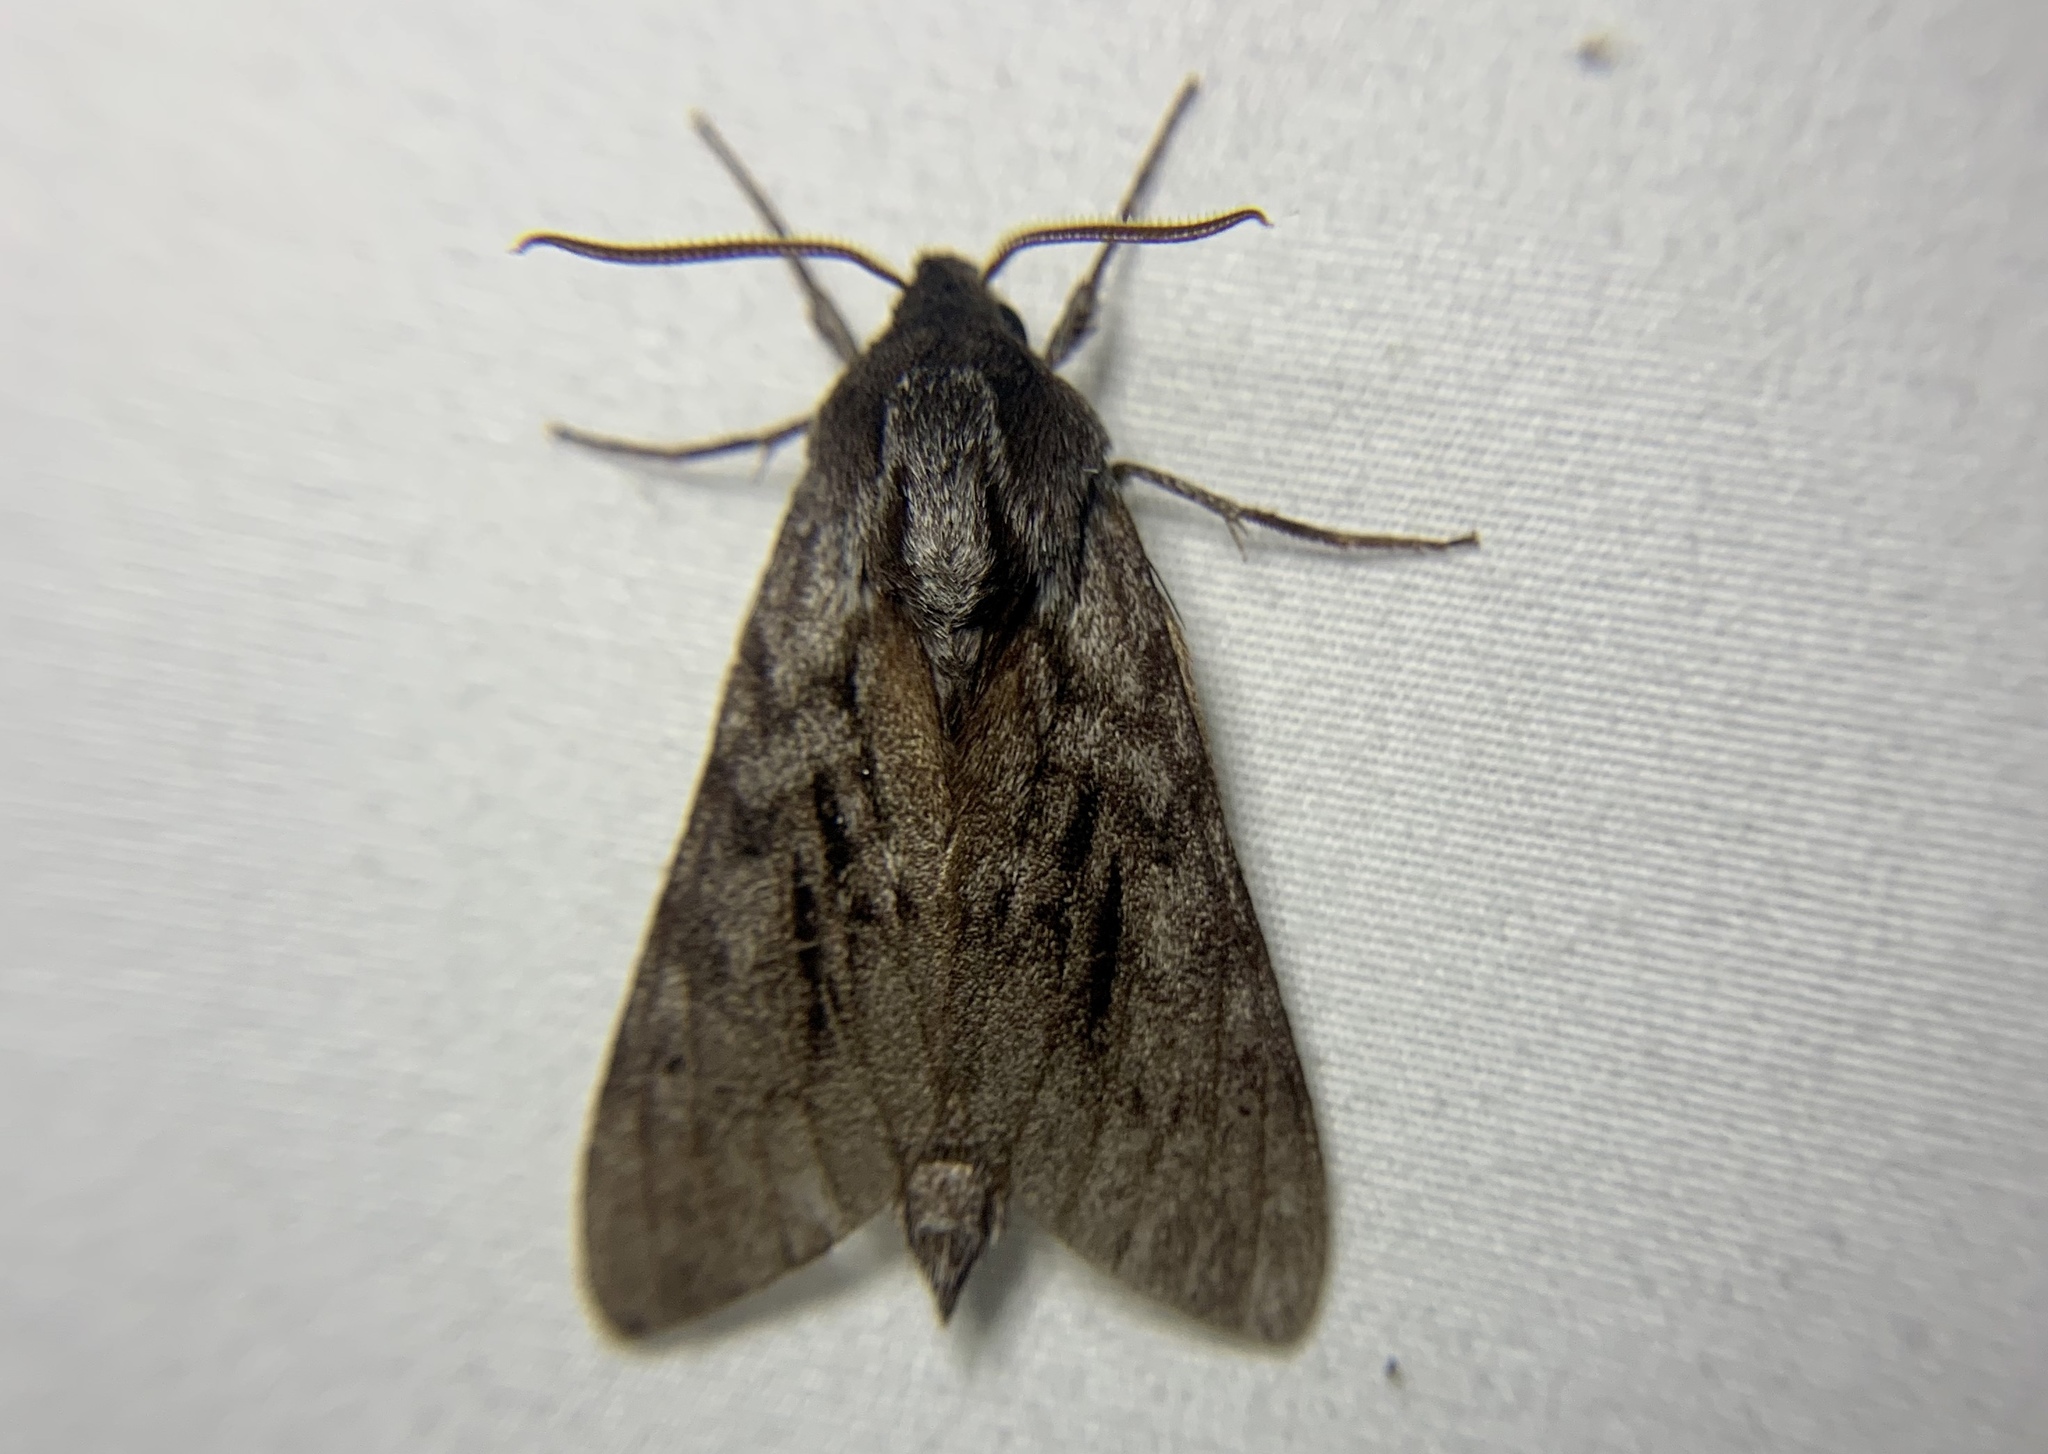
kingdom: Animalia
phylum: Arthropoda
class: Insecta
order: Lepidoptera
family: Sphingidae
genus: Lapara
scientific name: Lapara bombycoides
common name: Northern pine sphinx
